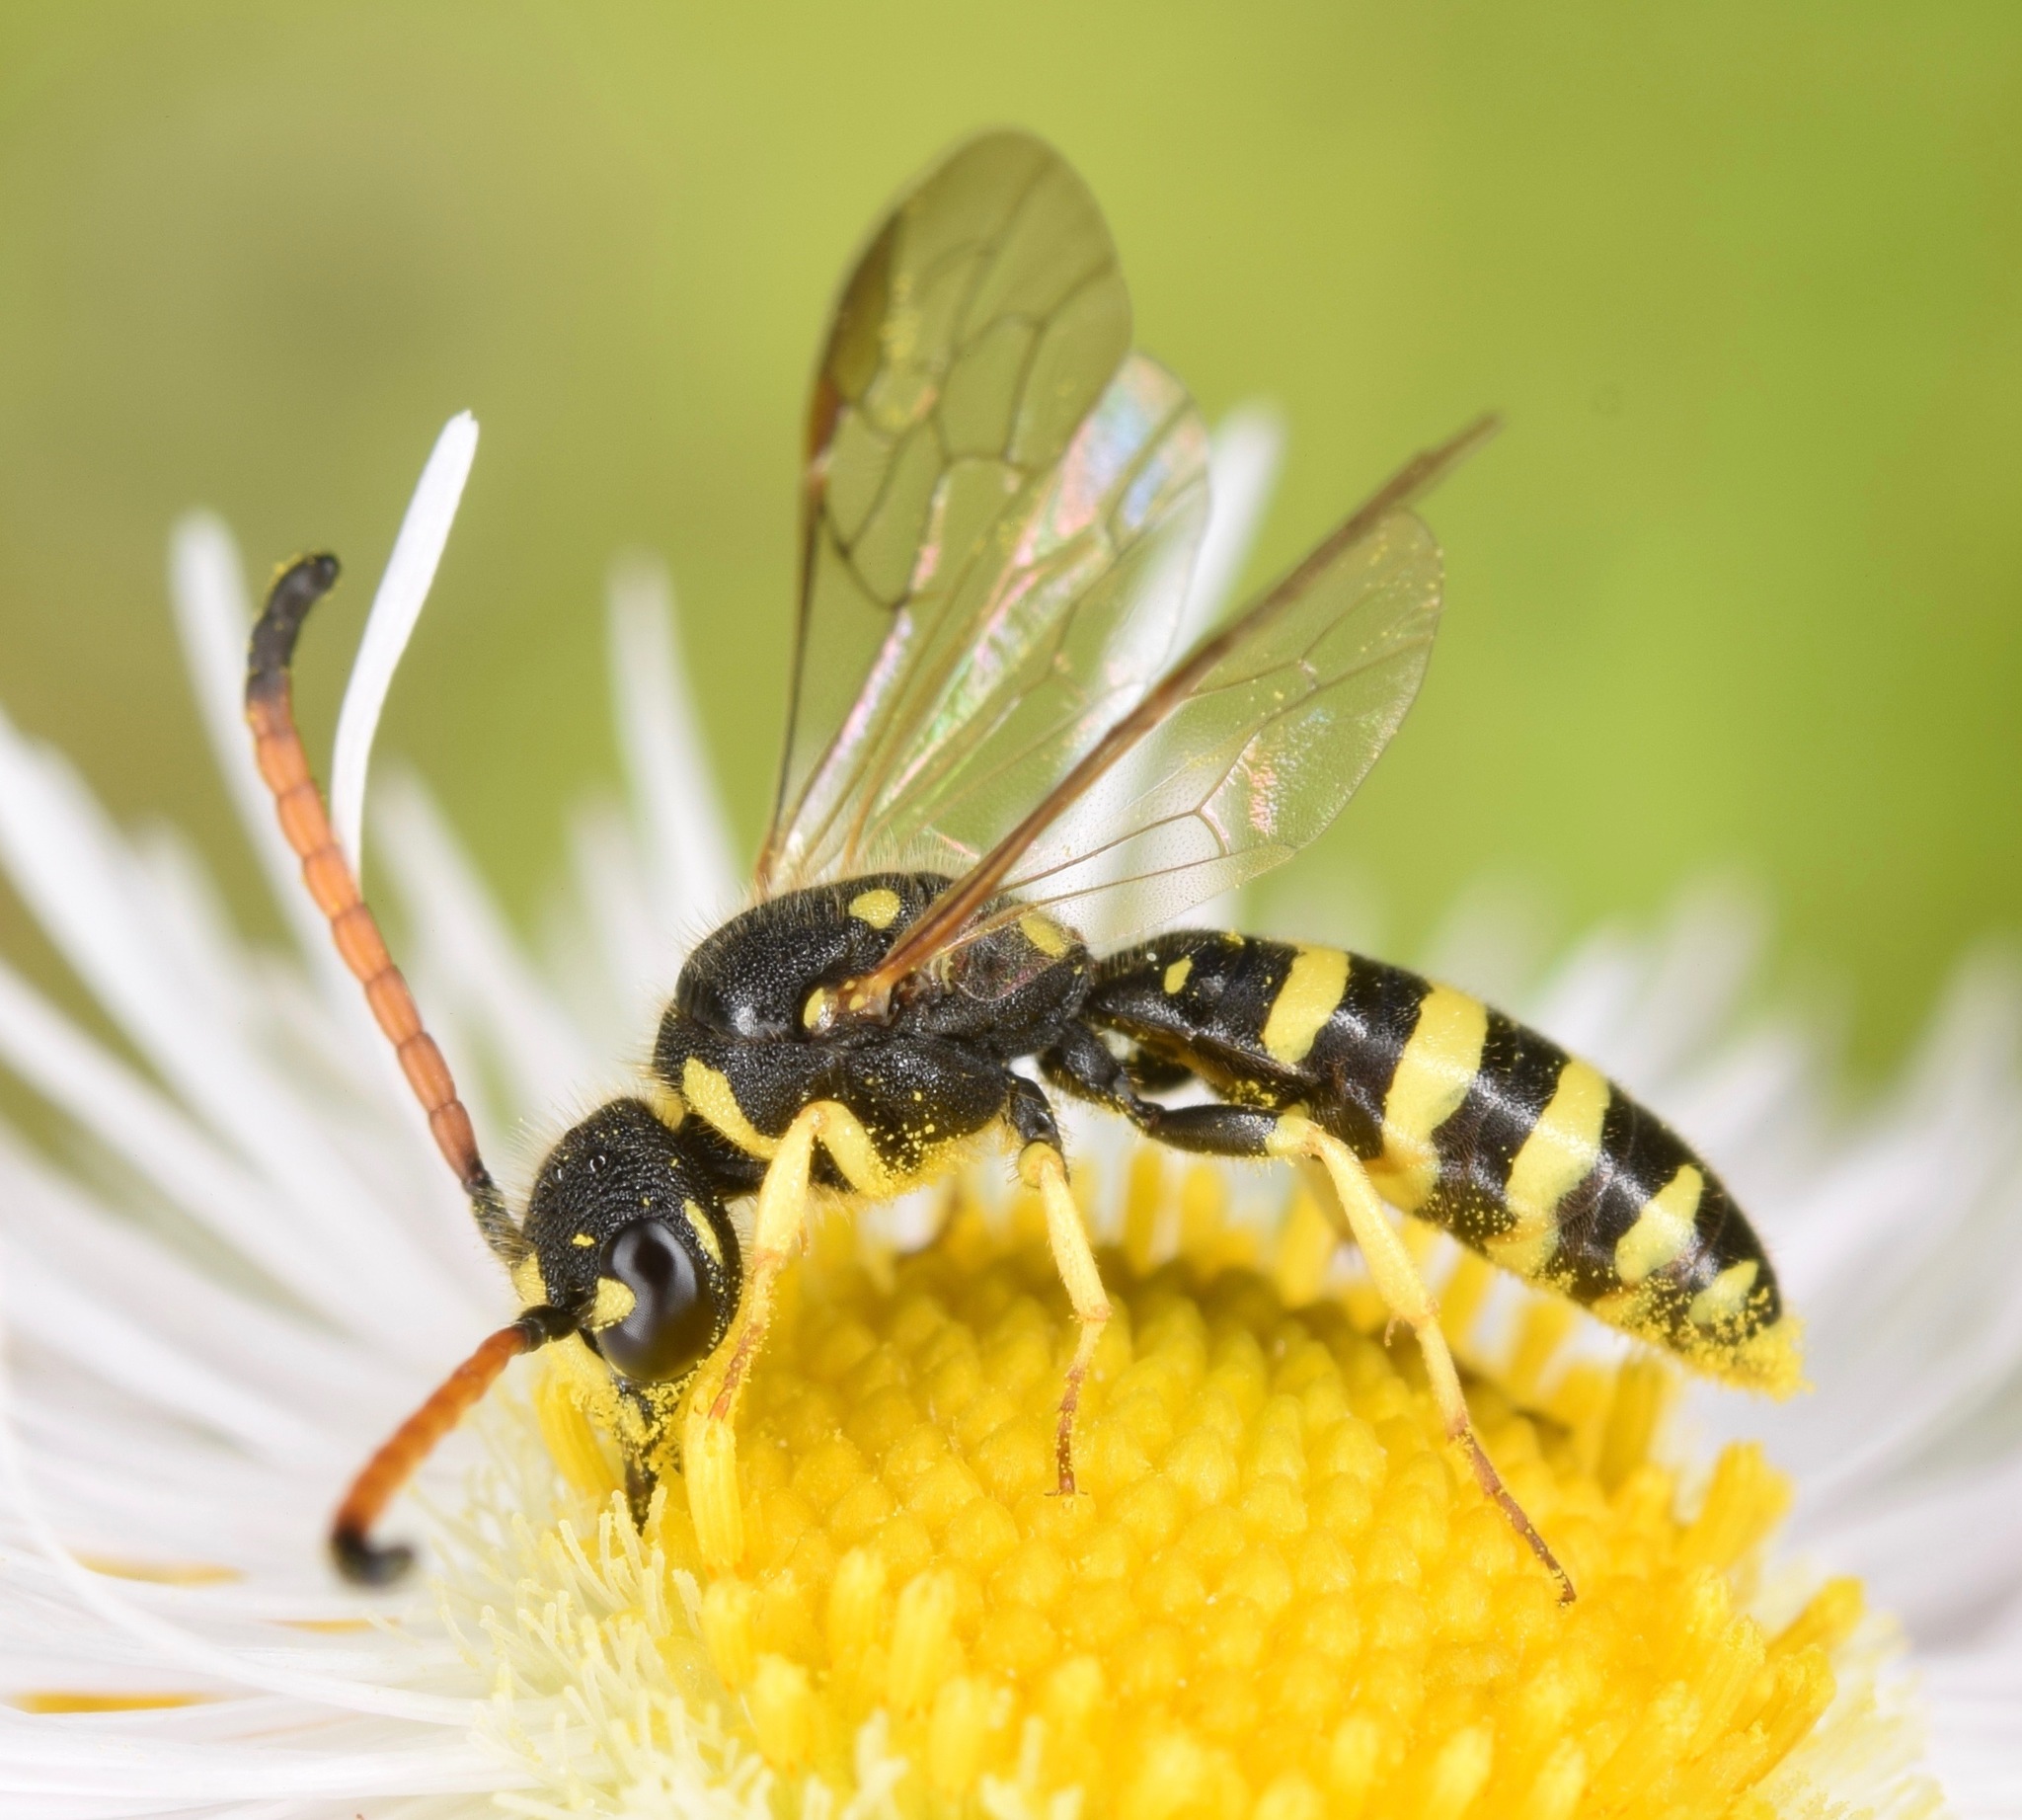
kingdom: Animalia
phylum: Arthropoda
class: Insecta
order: Hymenoptera
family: Sapygidae
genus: Sapyga
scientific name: Sapyga centrata
